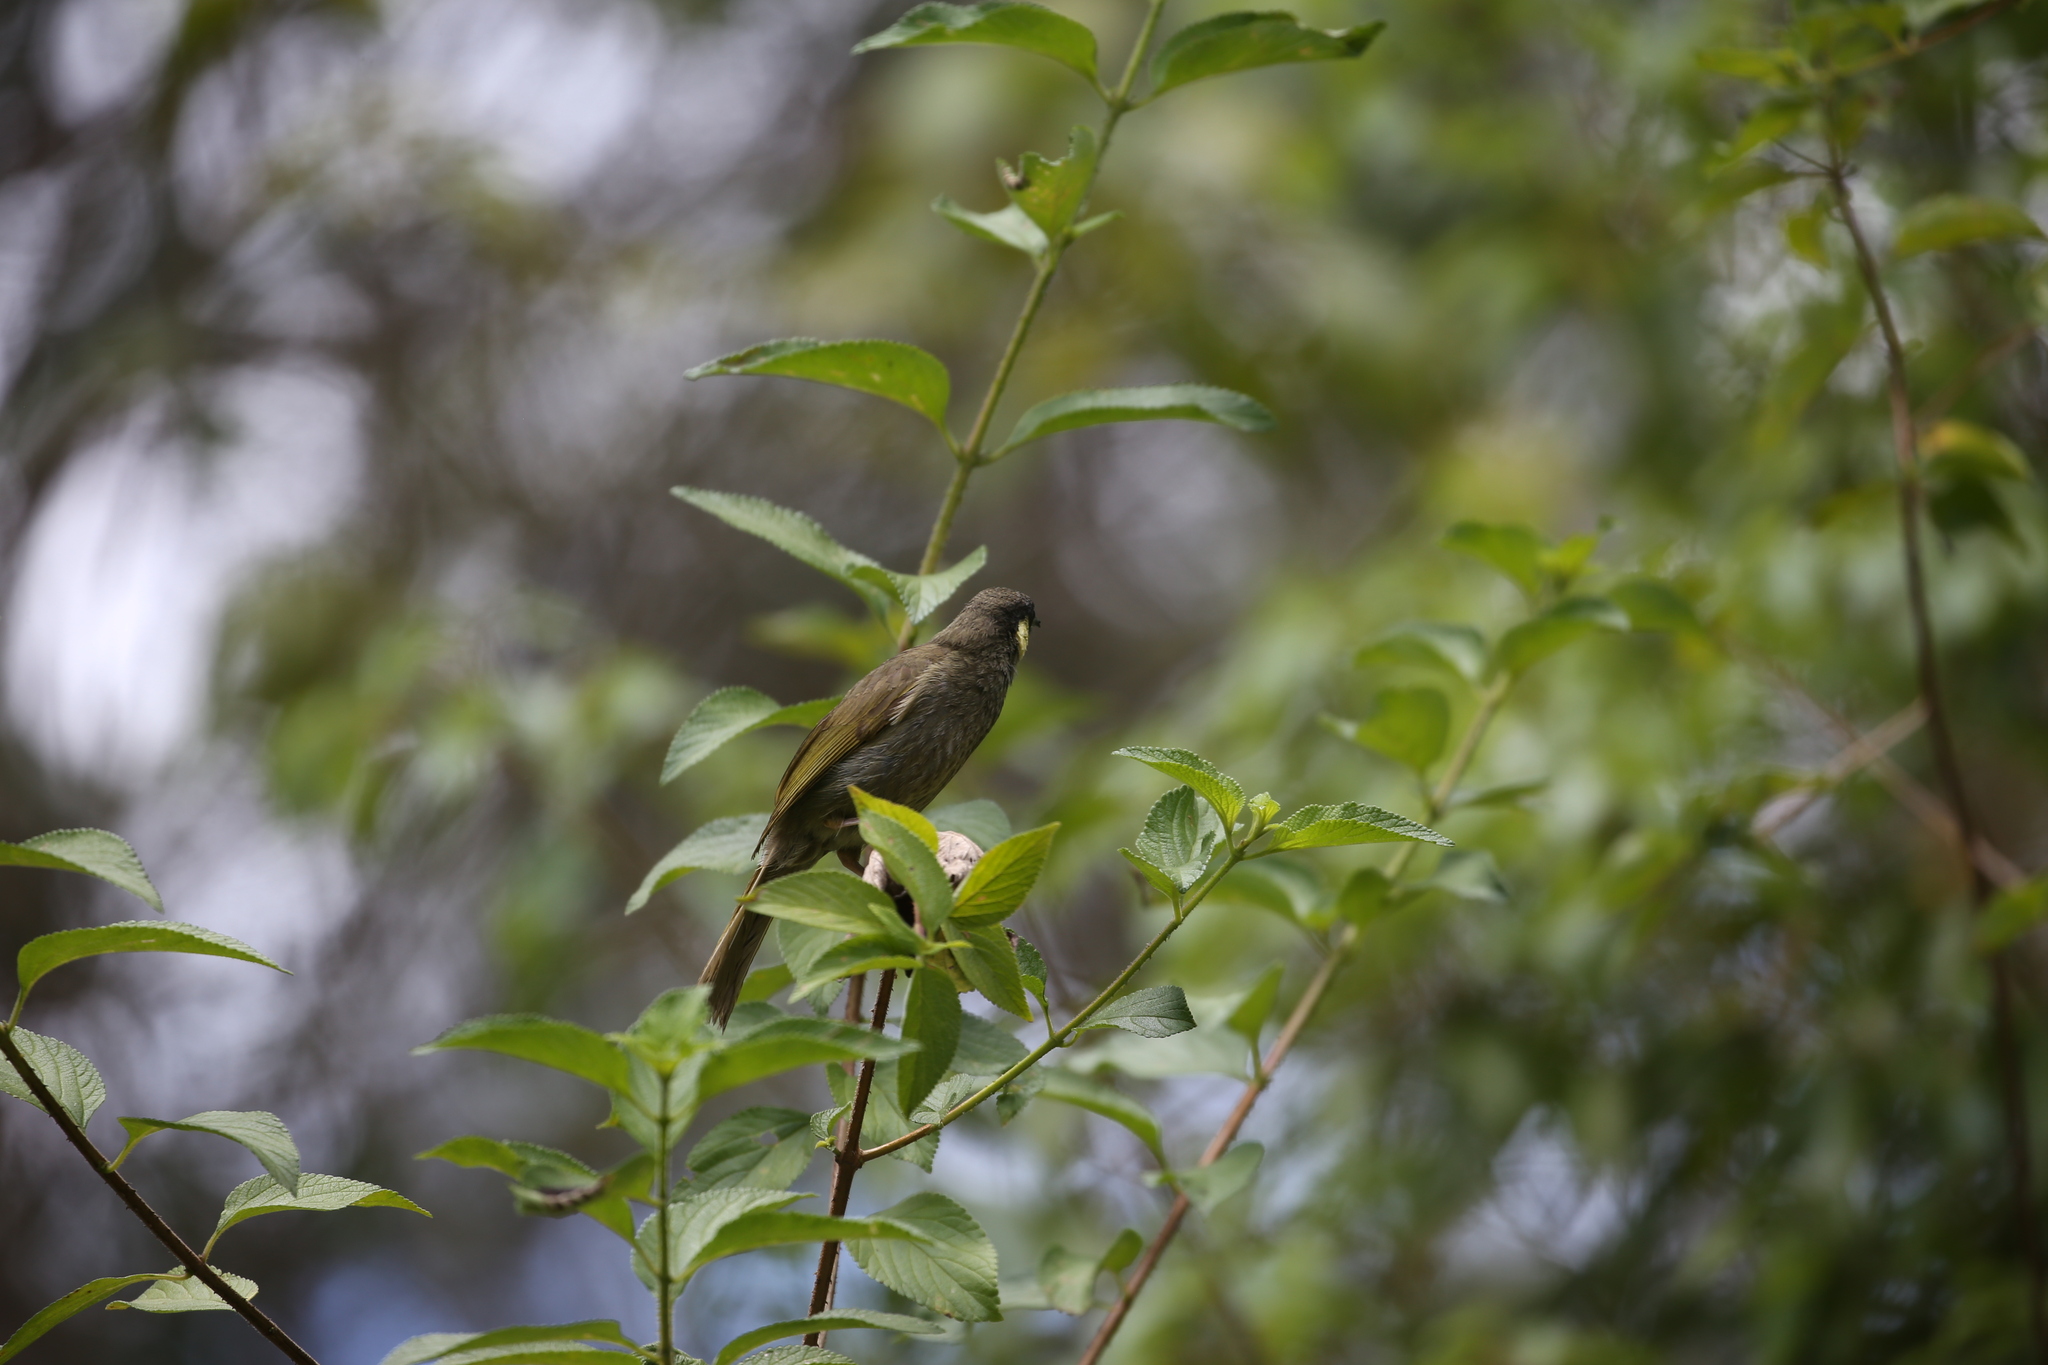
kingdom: Animalia
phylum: Chordata
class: Aves
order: Passeriformes
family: Meliphagidae
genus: Meliphaga
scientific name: Meliphaga lewinii
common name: Lewin's honeyeater
